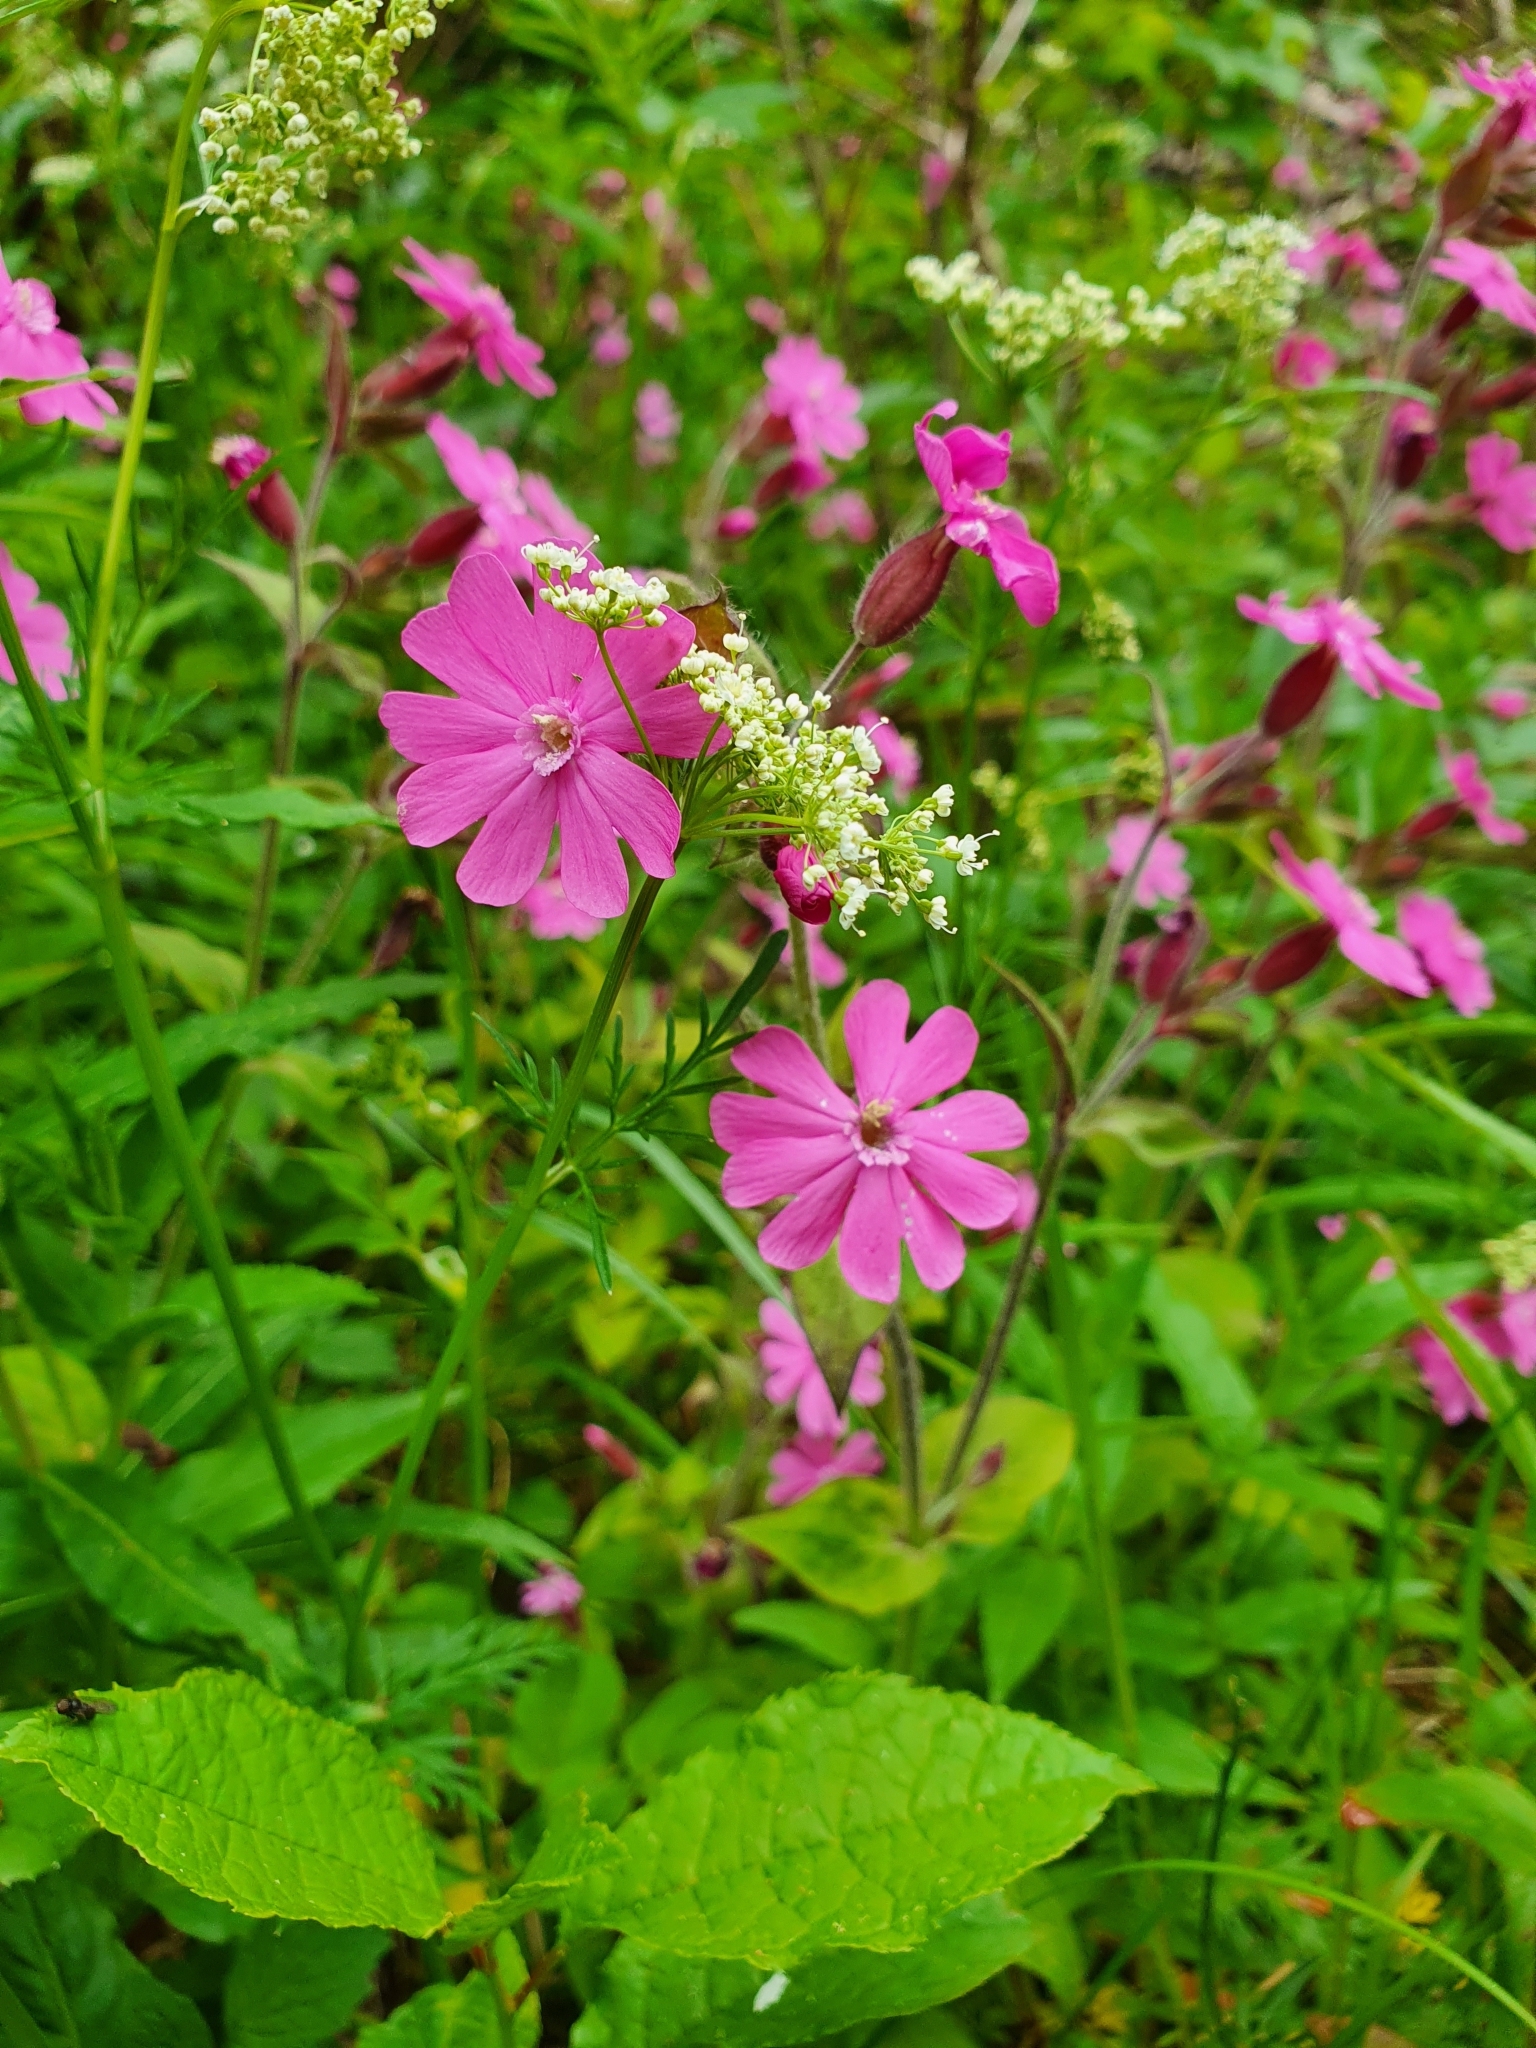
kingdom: Plantae
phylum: Tracheophyta
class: Magnoliopsida
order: Caryophyllales
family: Caryophyllaceae
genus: Silene
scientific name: Silene dioica
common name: Red campion
